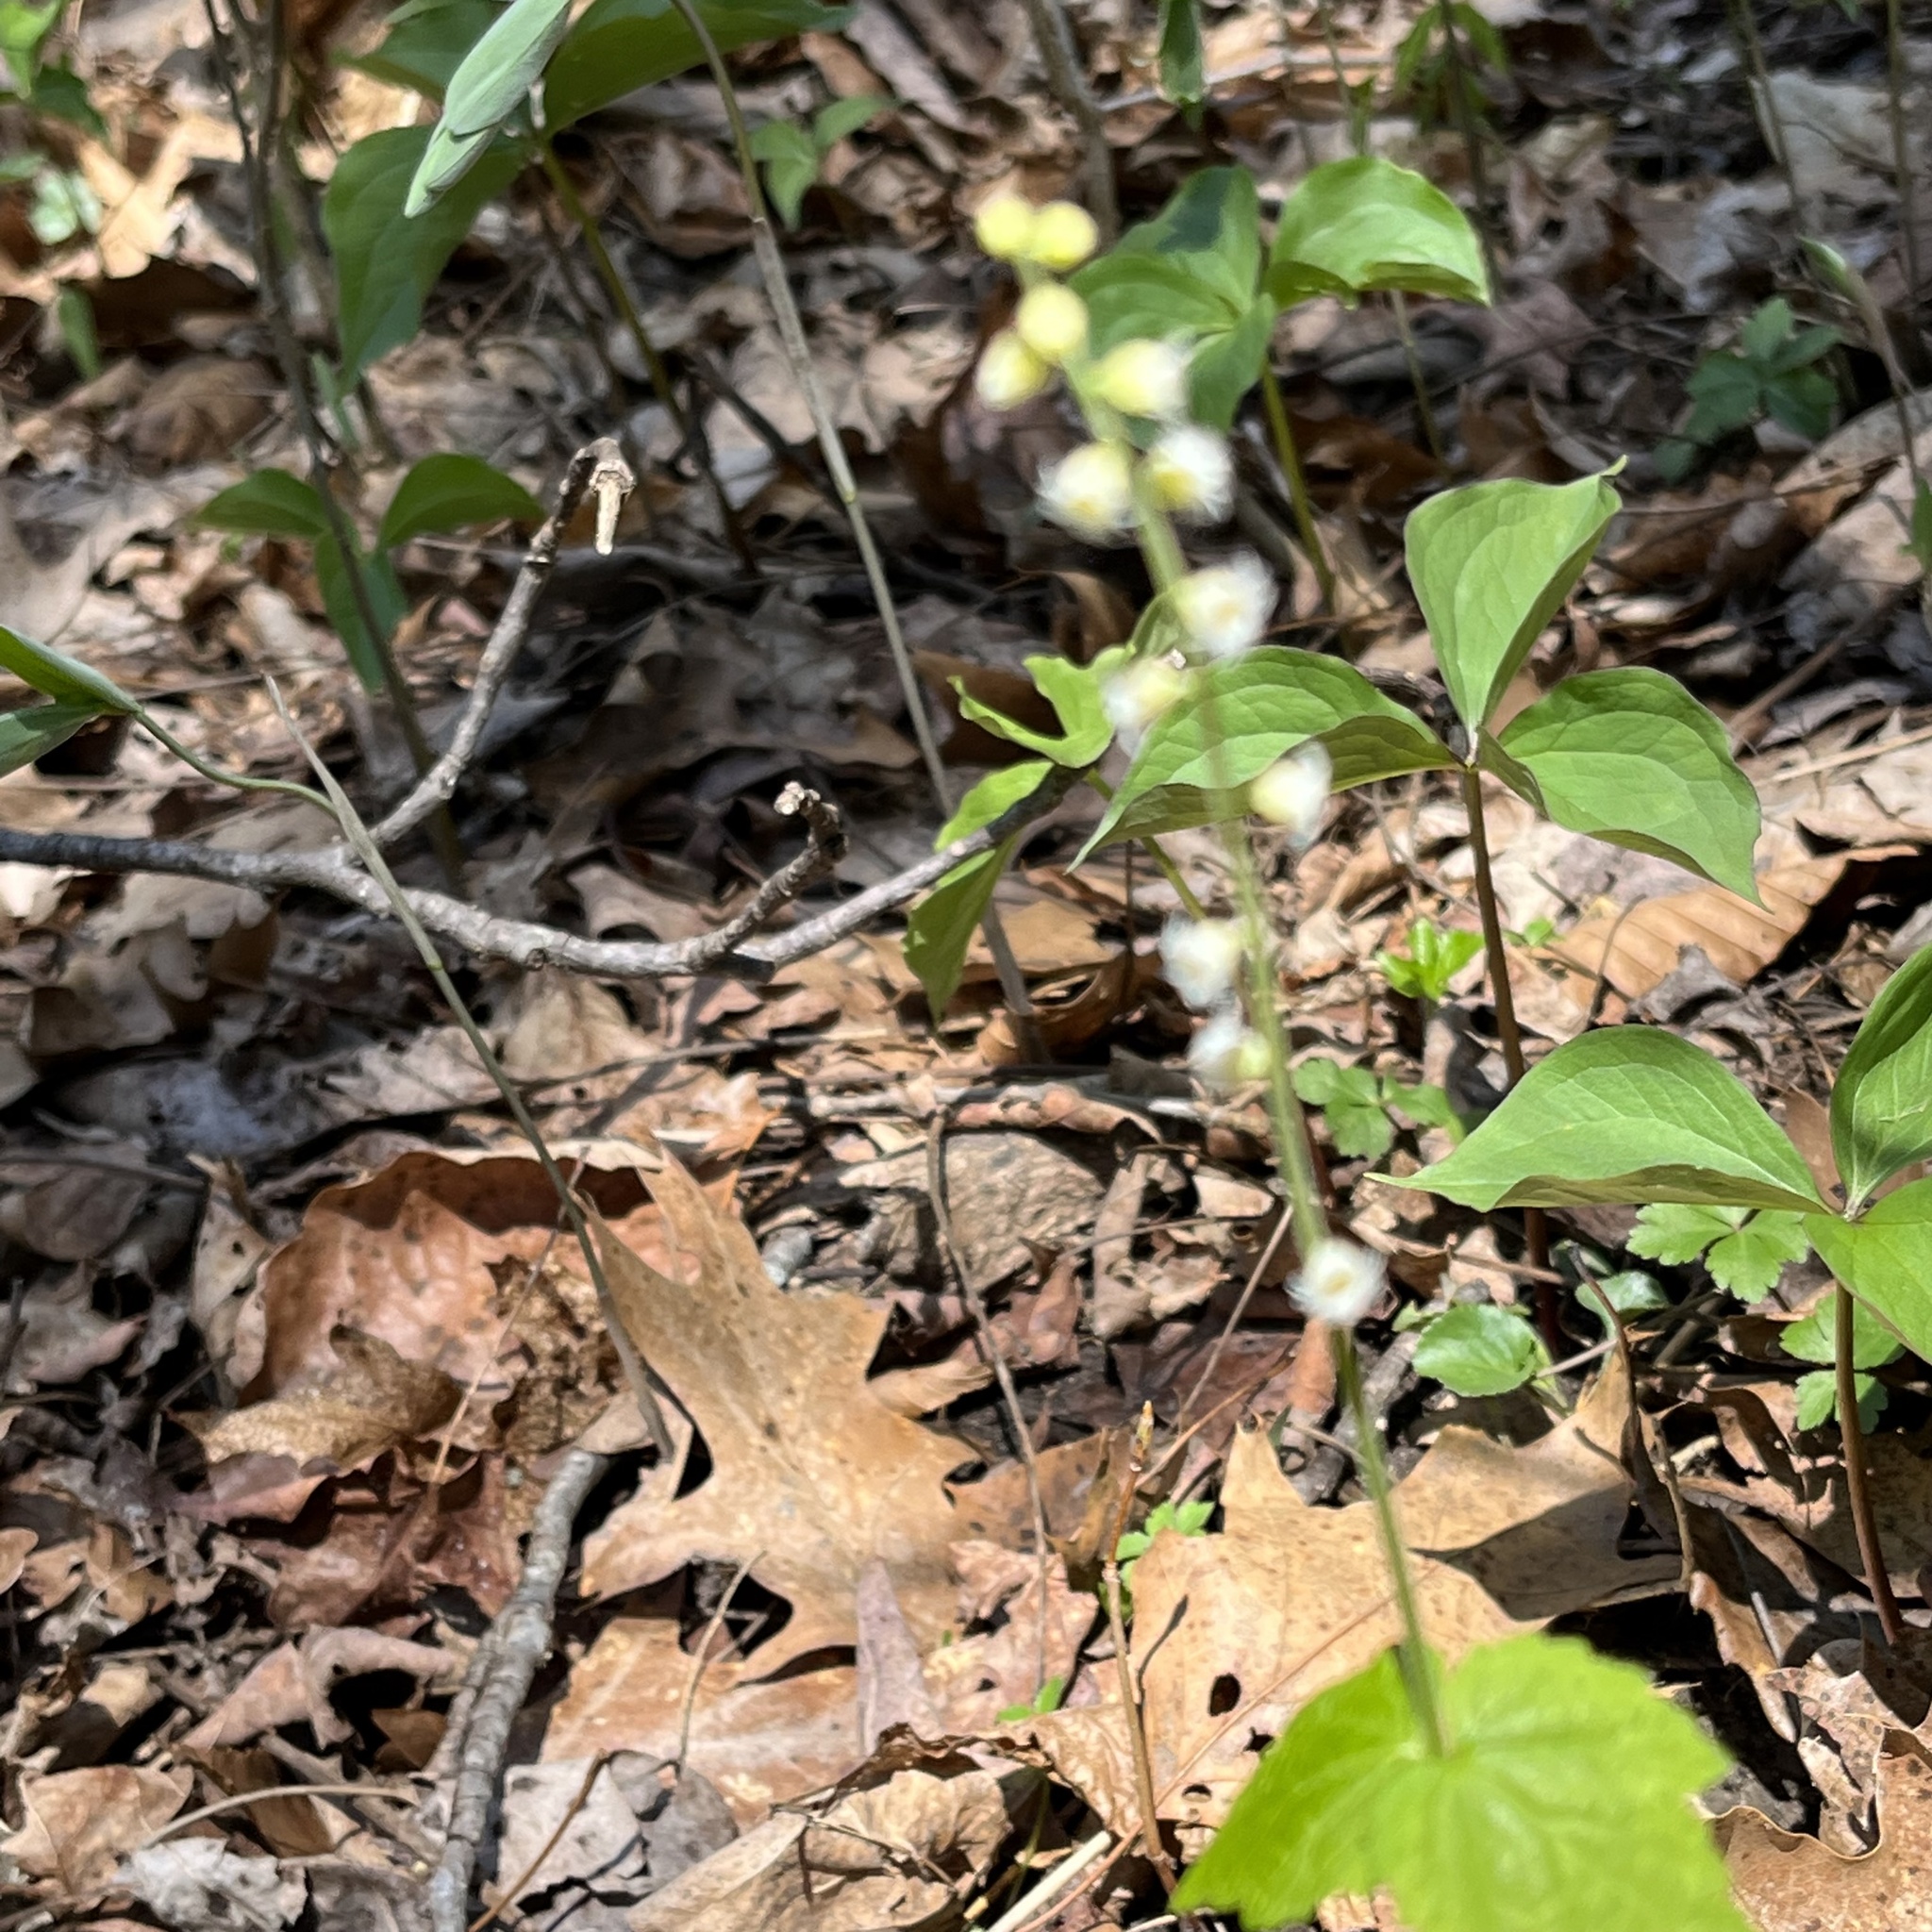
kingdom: Plantae
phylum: Tracheophyta
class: Magnoliopsida
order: Saxifragales
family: Saxifragaceae
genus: Mitella
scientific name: Mitella diphylla
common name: Coolwort
